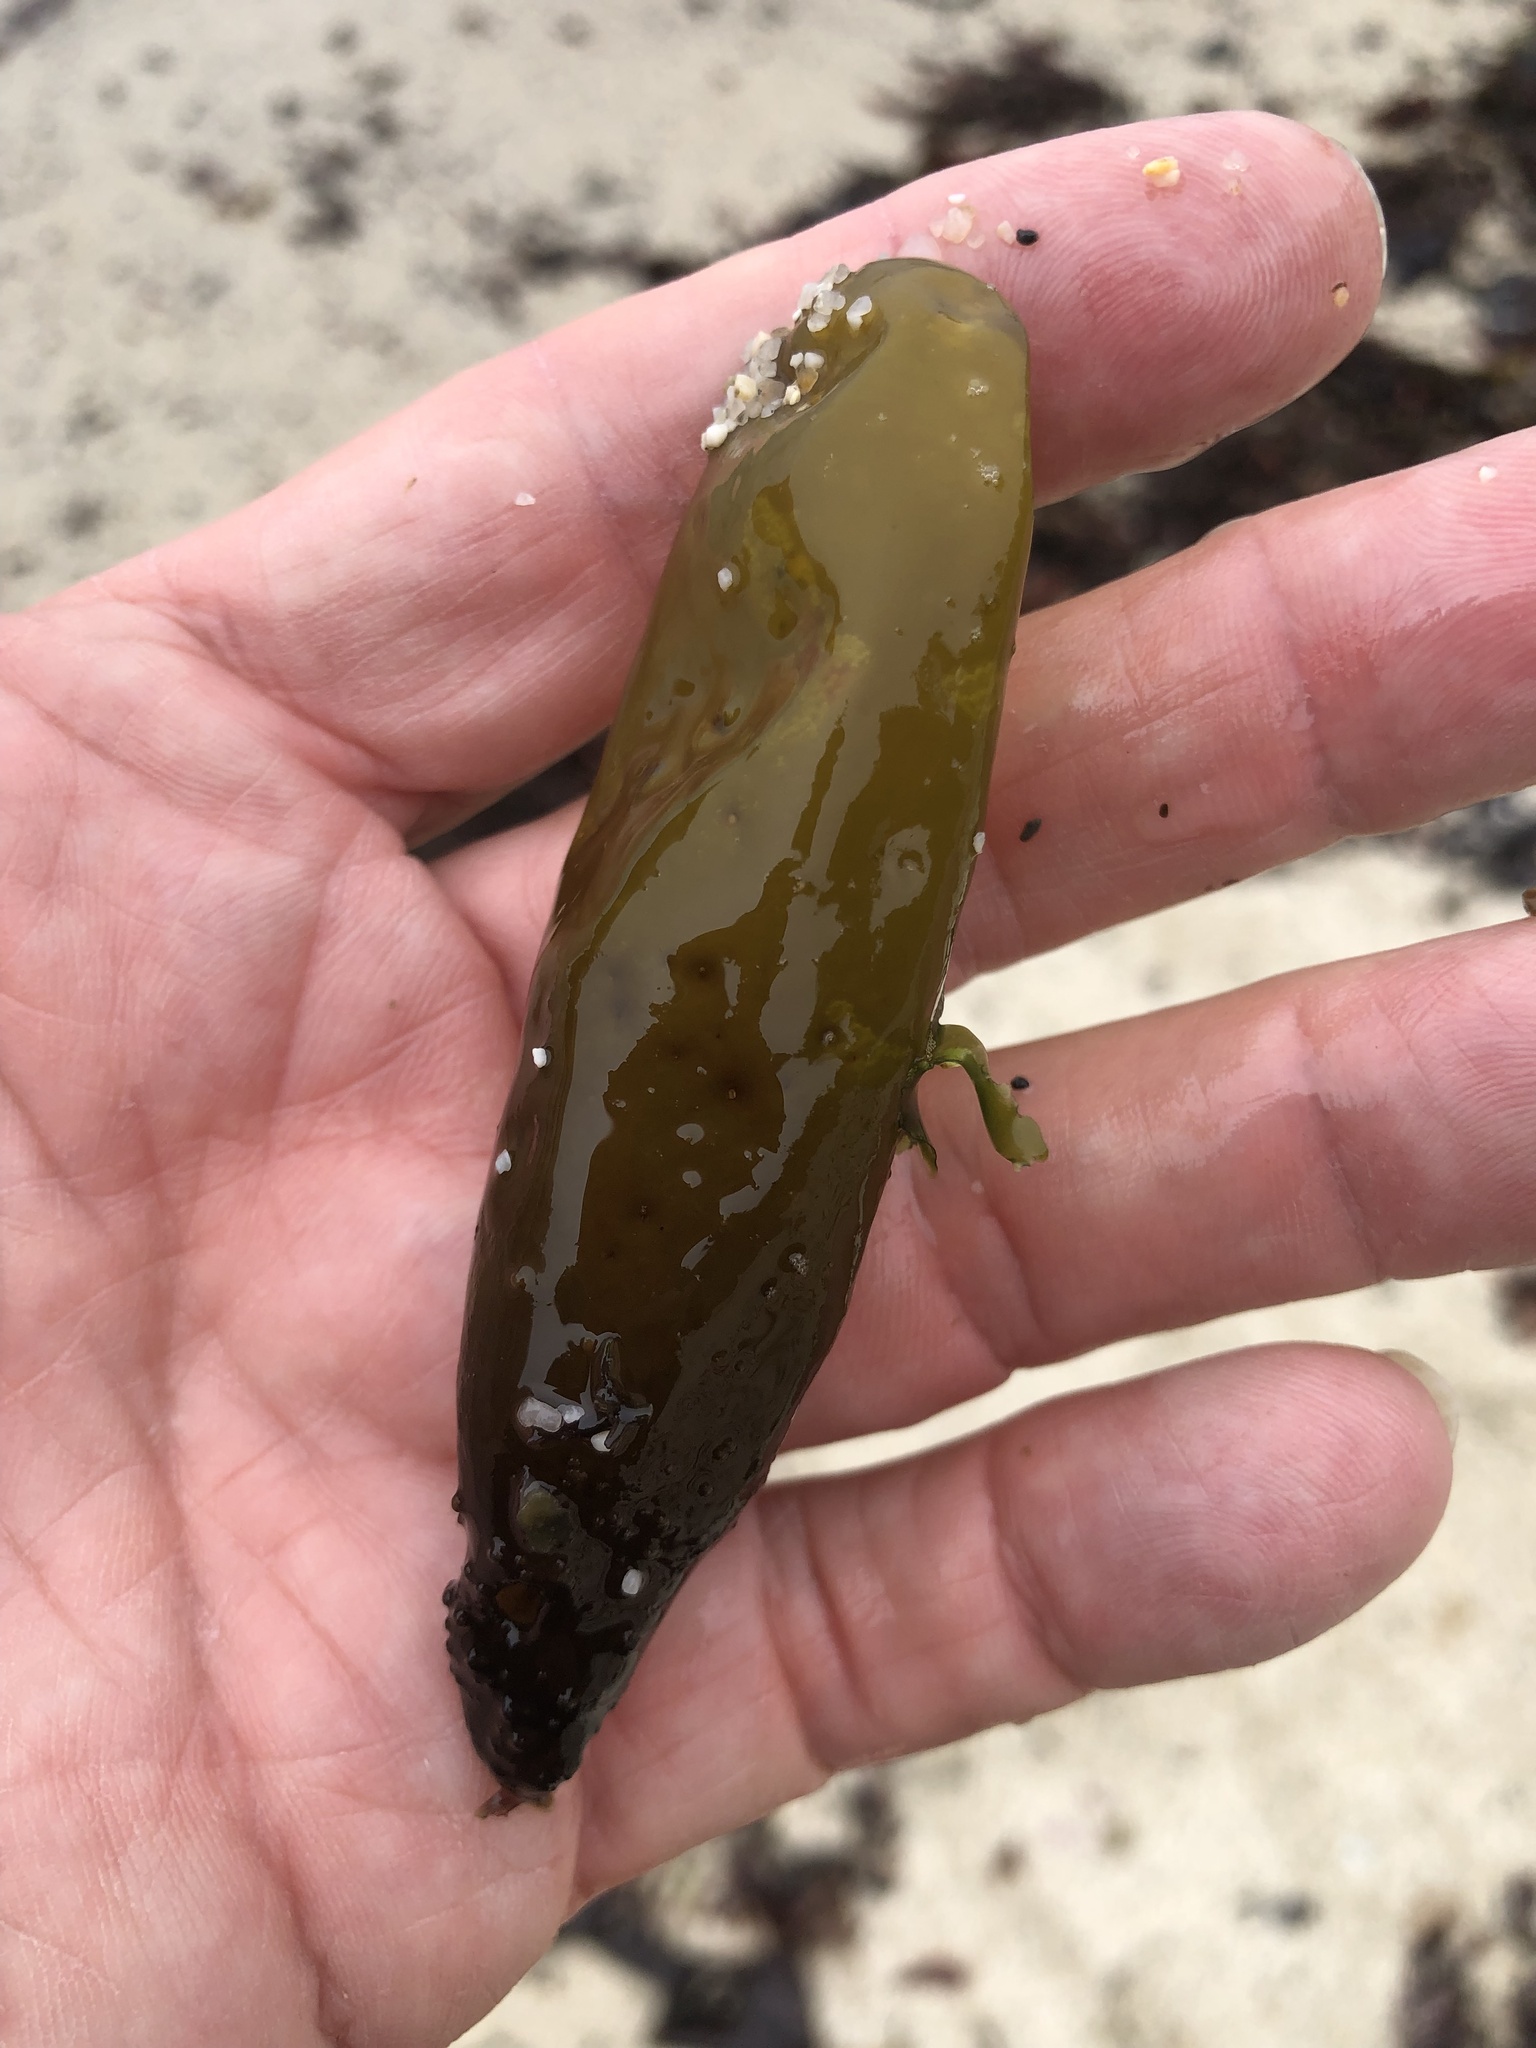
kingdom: Plantae
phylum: Rhodophyta
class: Florideophyceae
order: Palmariales
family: Palmariaceae
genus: Halosaccion
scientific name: Halosaccion glandiforme
